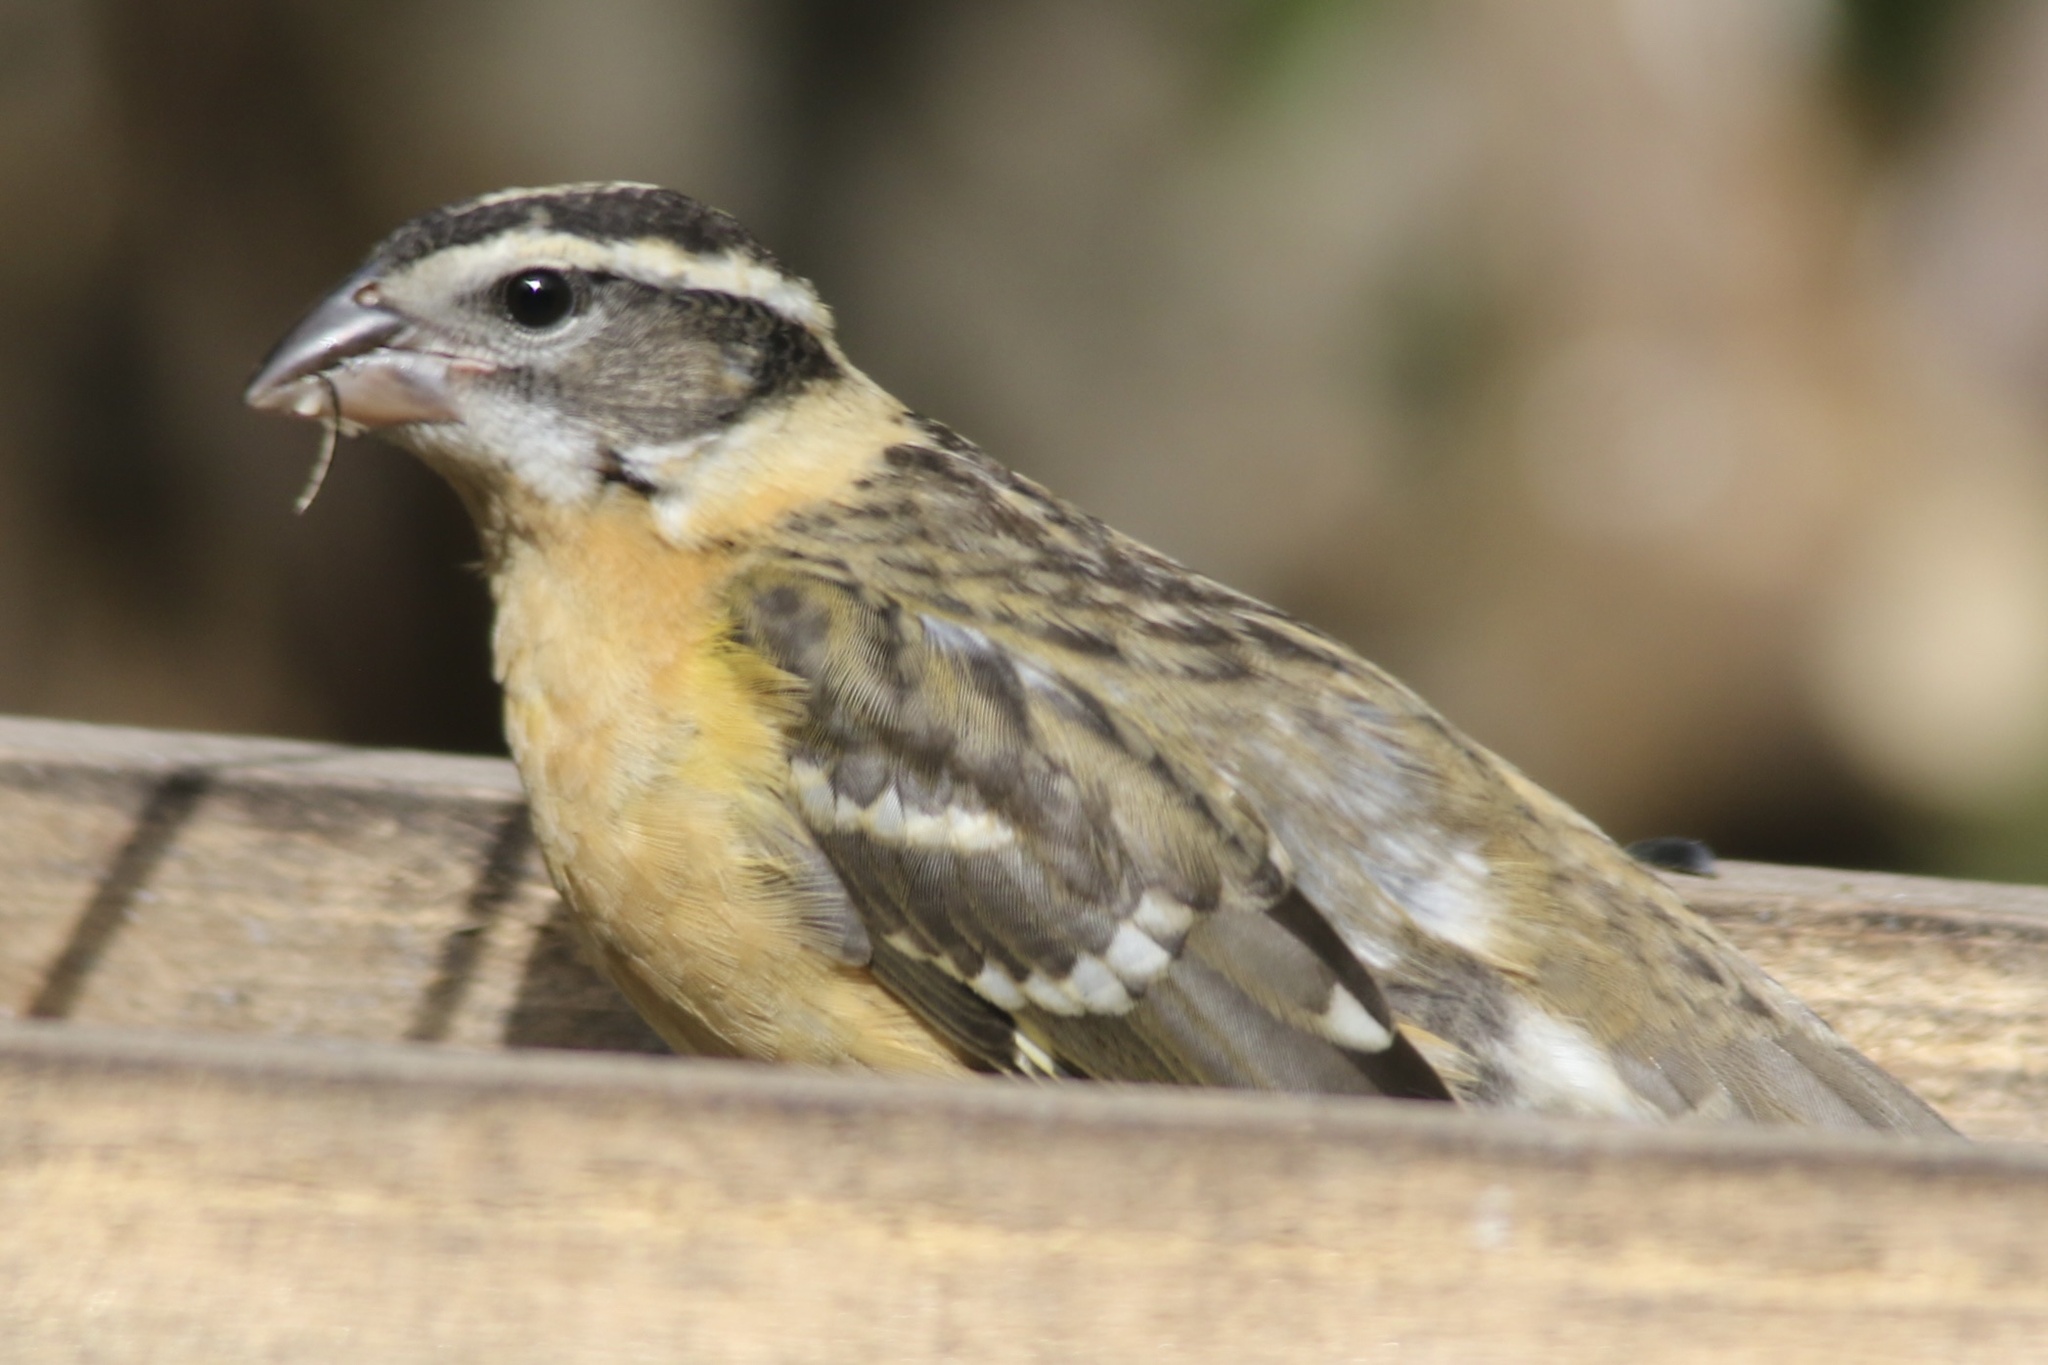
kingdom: Animalia
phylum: Chordata
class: Aves
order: Passeriformes
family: Cardinalidae
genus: Pheucticus
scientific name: Pheucticus melanocephalus
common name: Black-headed grosbeak
